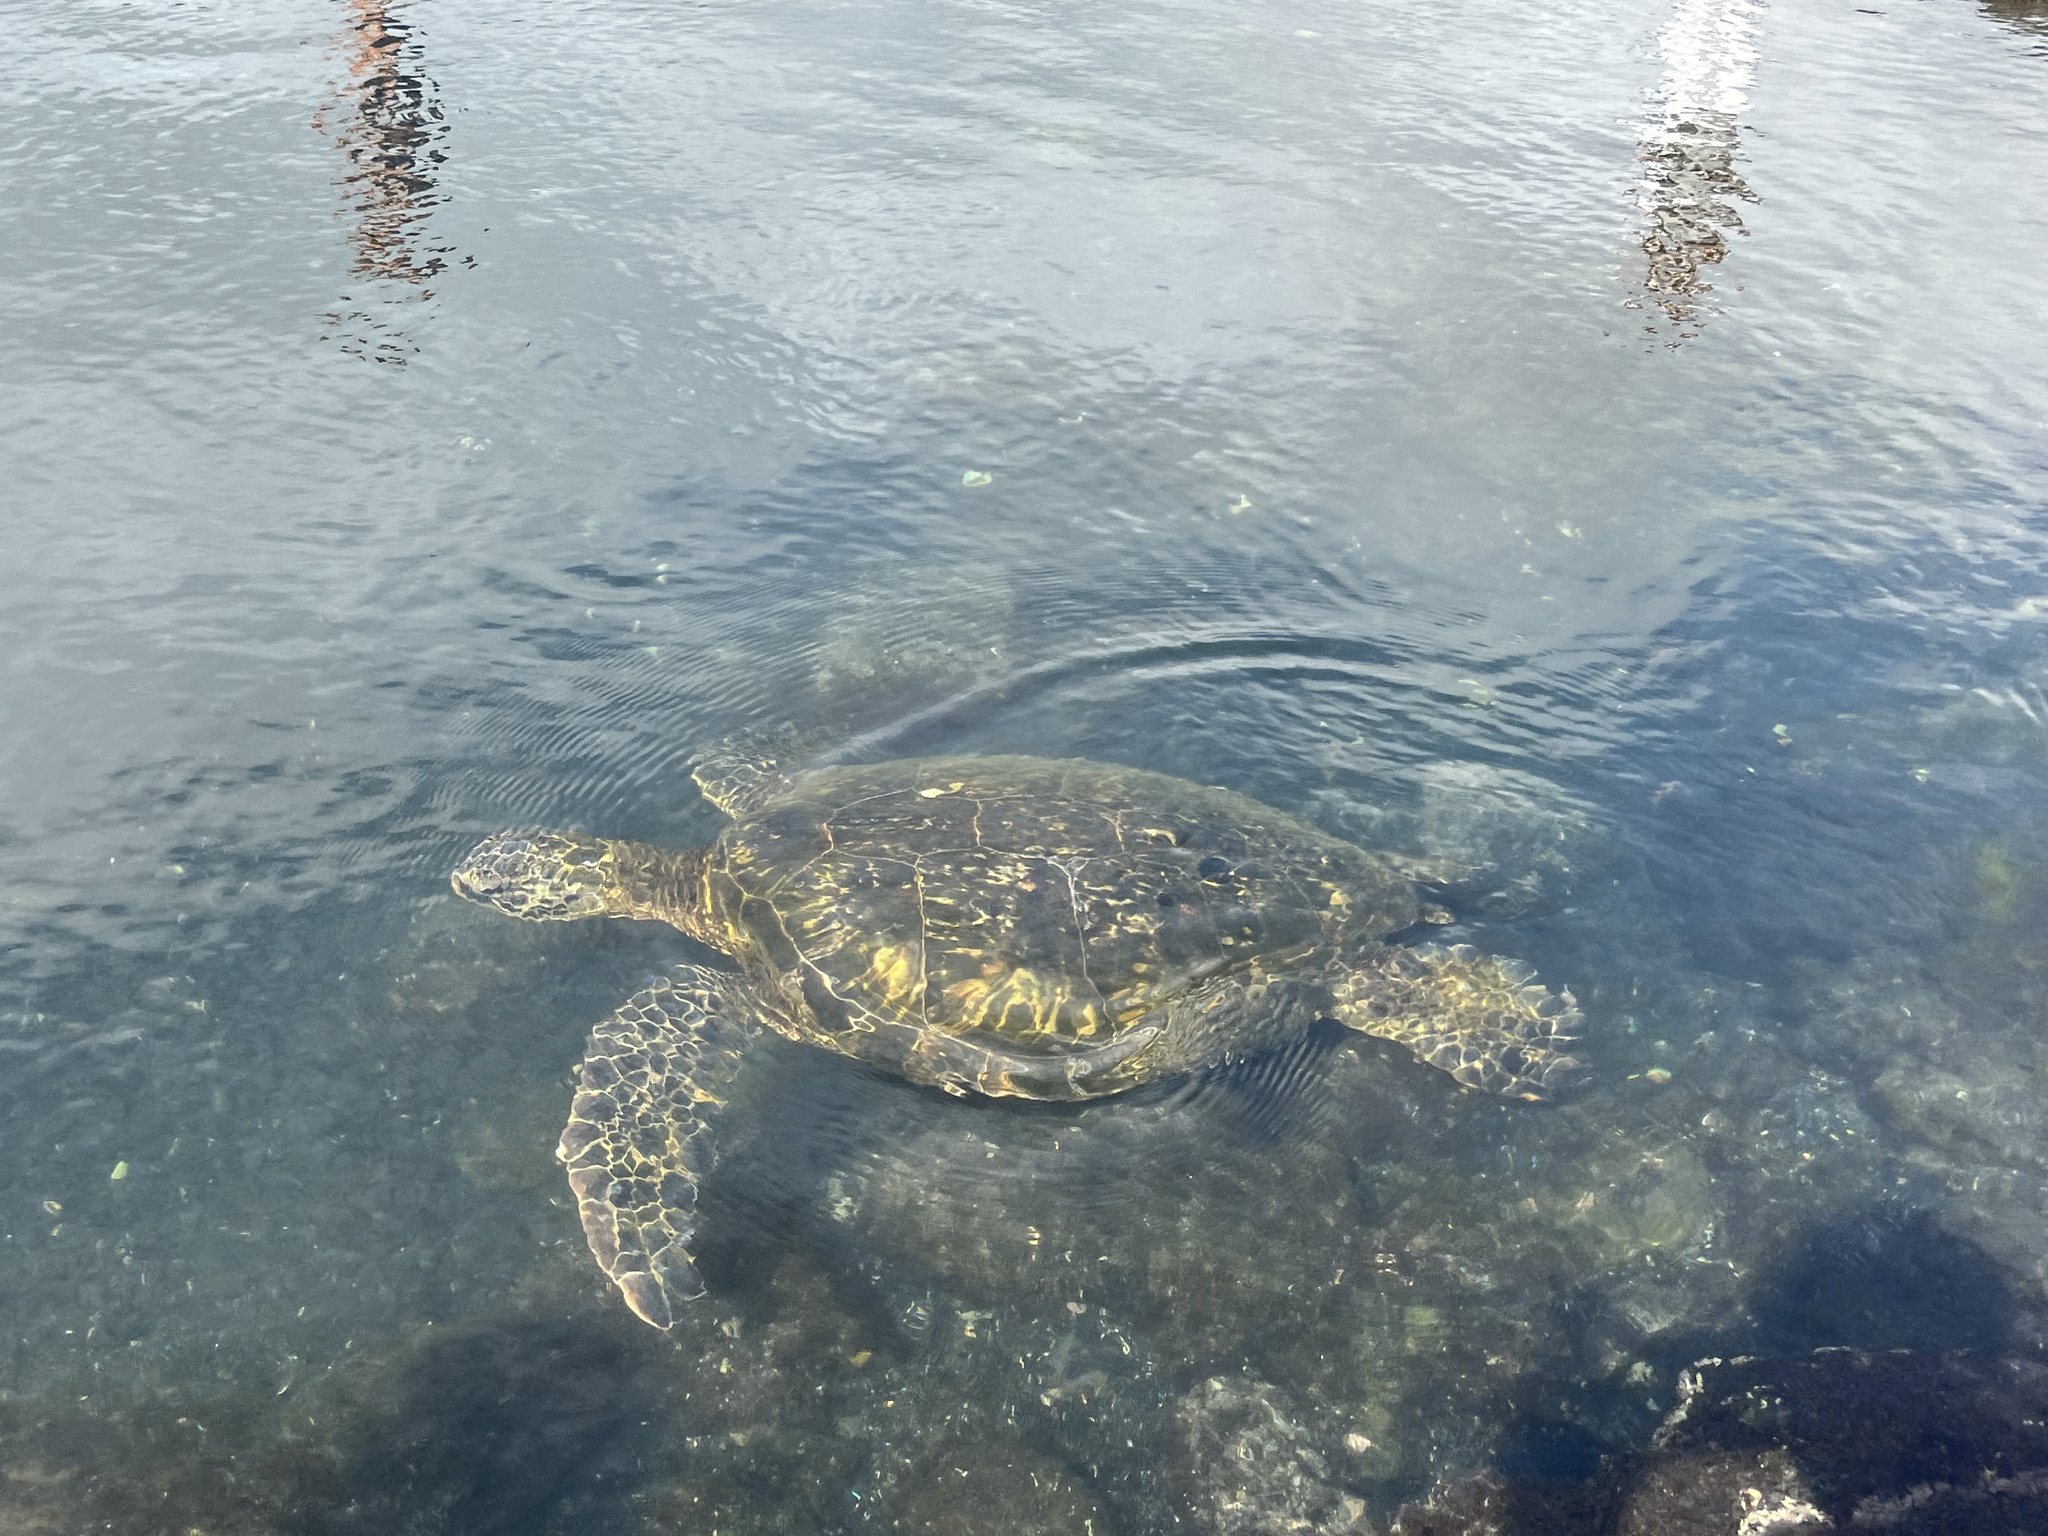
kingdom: Animalia
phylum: Chordata
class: Testudines
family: Cheloniidae
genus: Chelonia
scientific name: Chelonia mydas
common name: Green turtle
